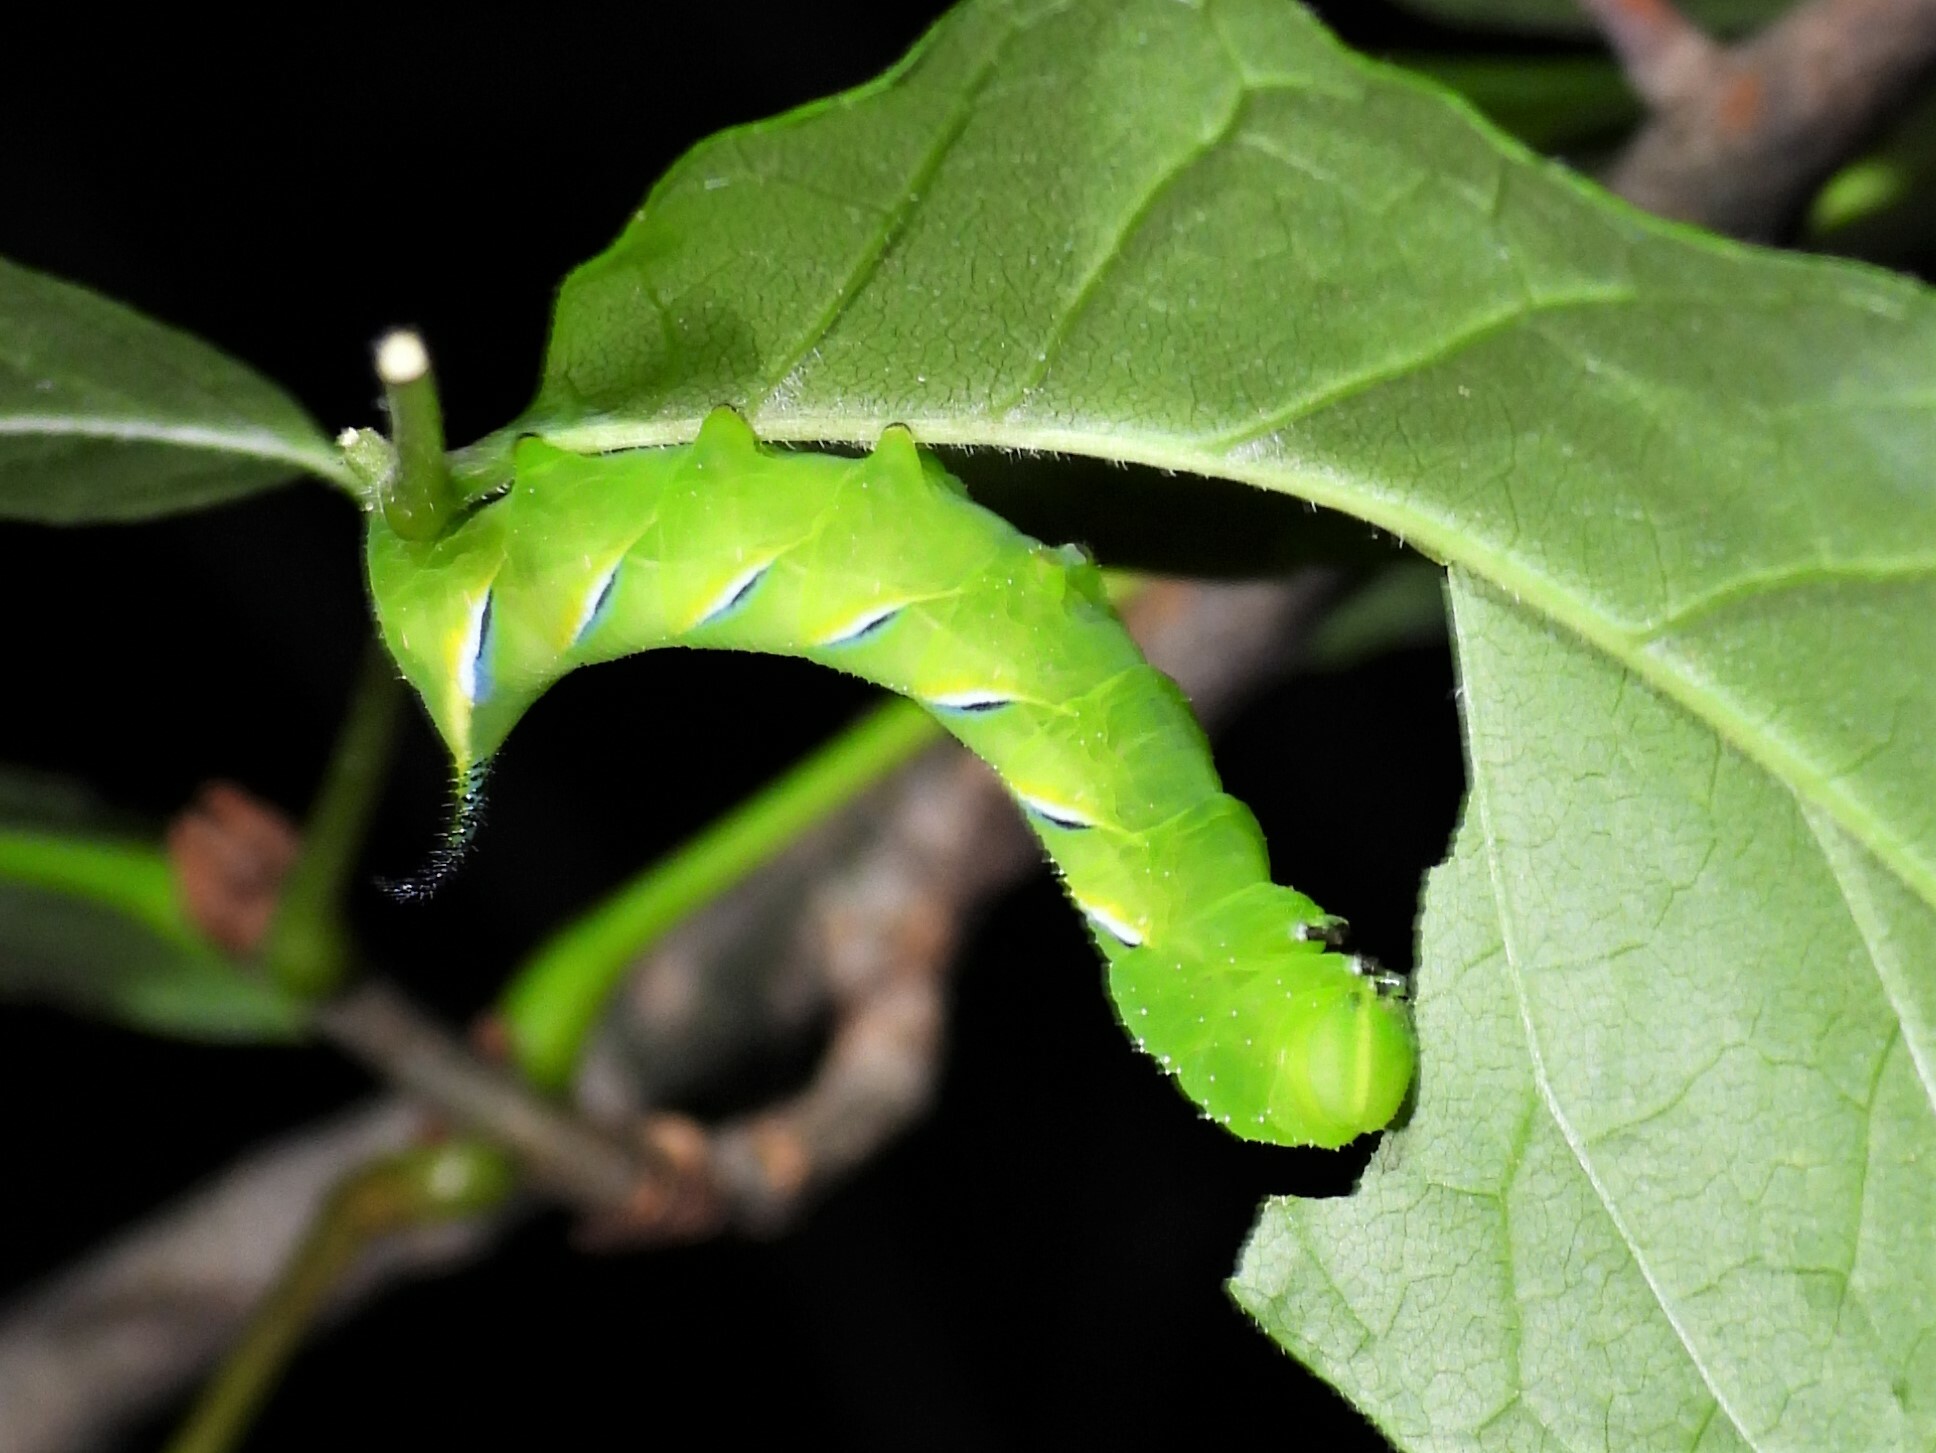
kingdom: Animalia
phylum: Arthropoda
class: Insecta
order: Lepidoptera
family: Sphingidae
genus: Sphinx
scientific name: Sphinx kalmiae
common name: Laurel sphinx
